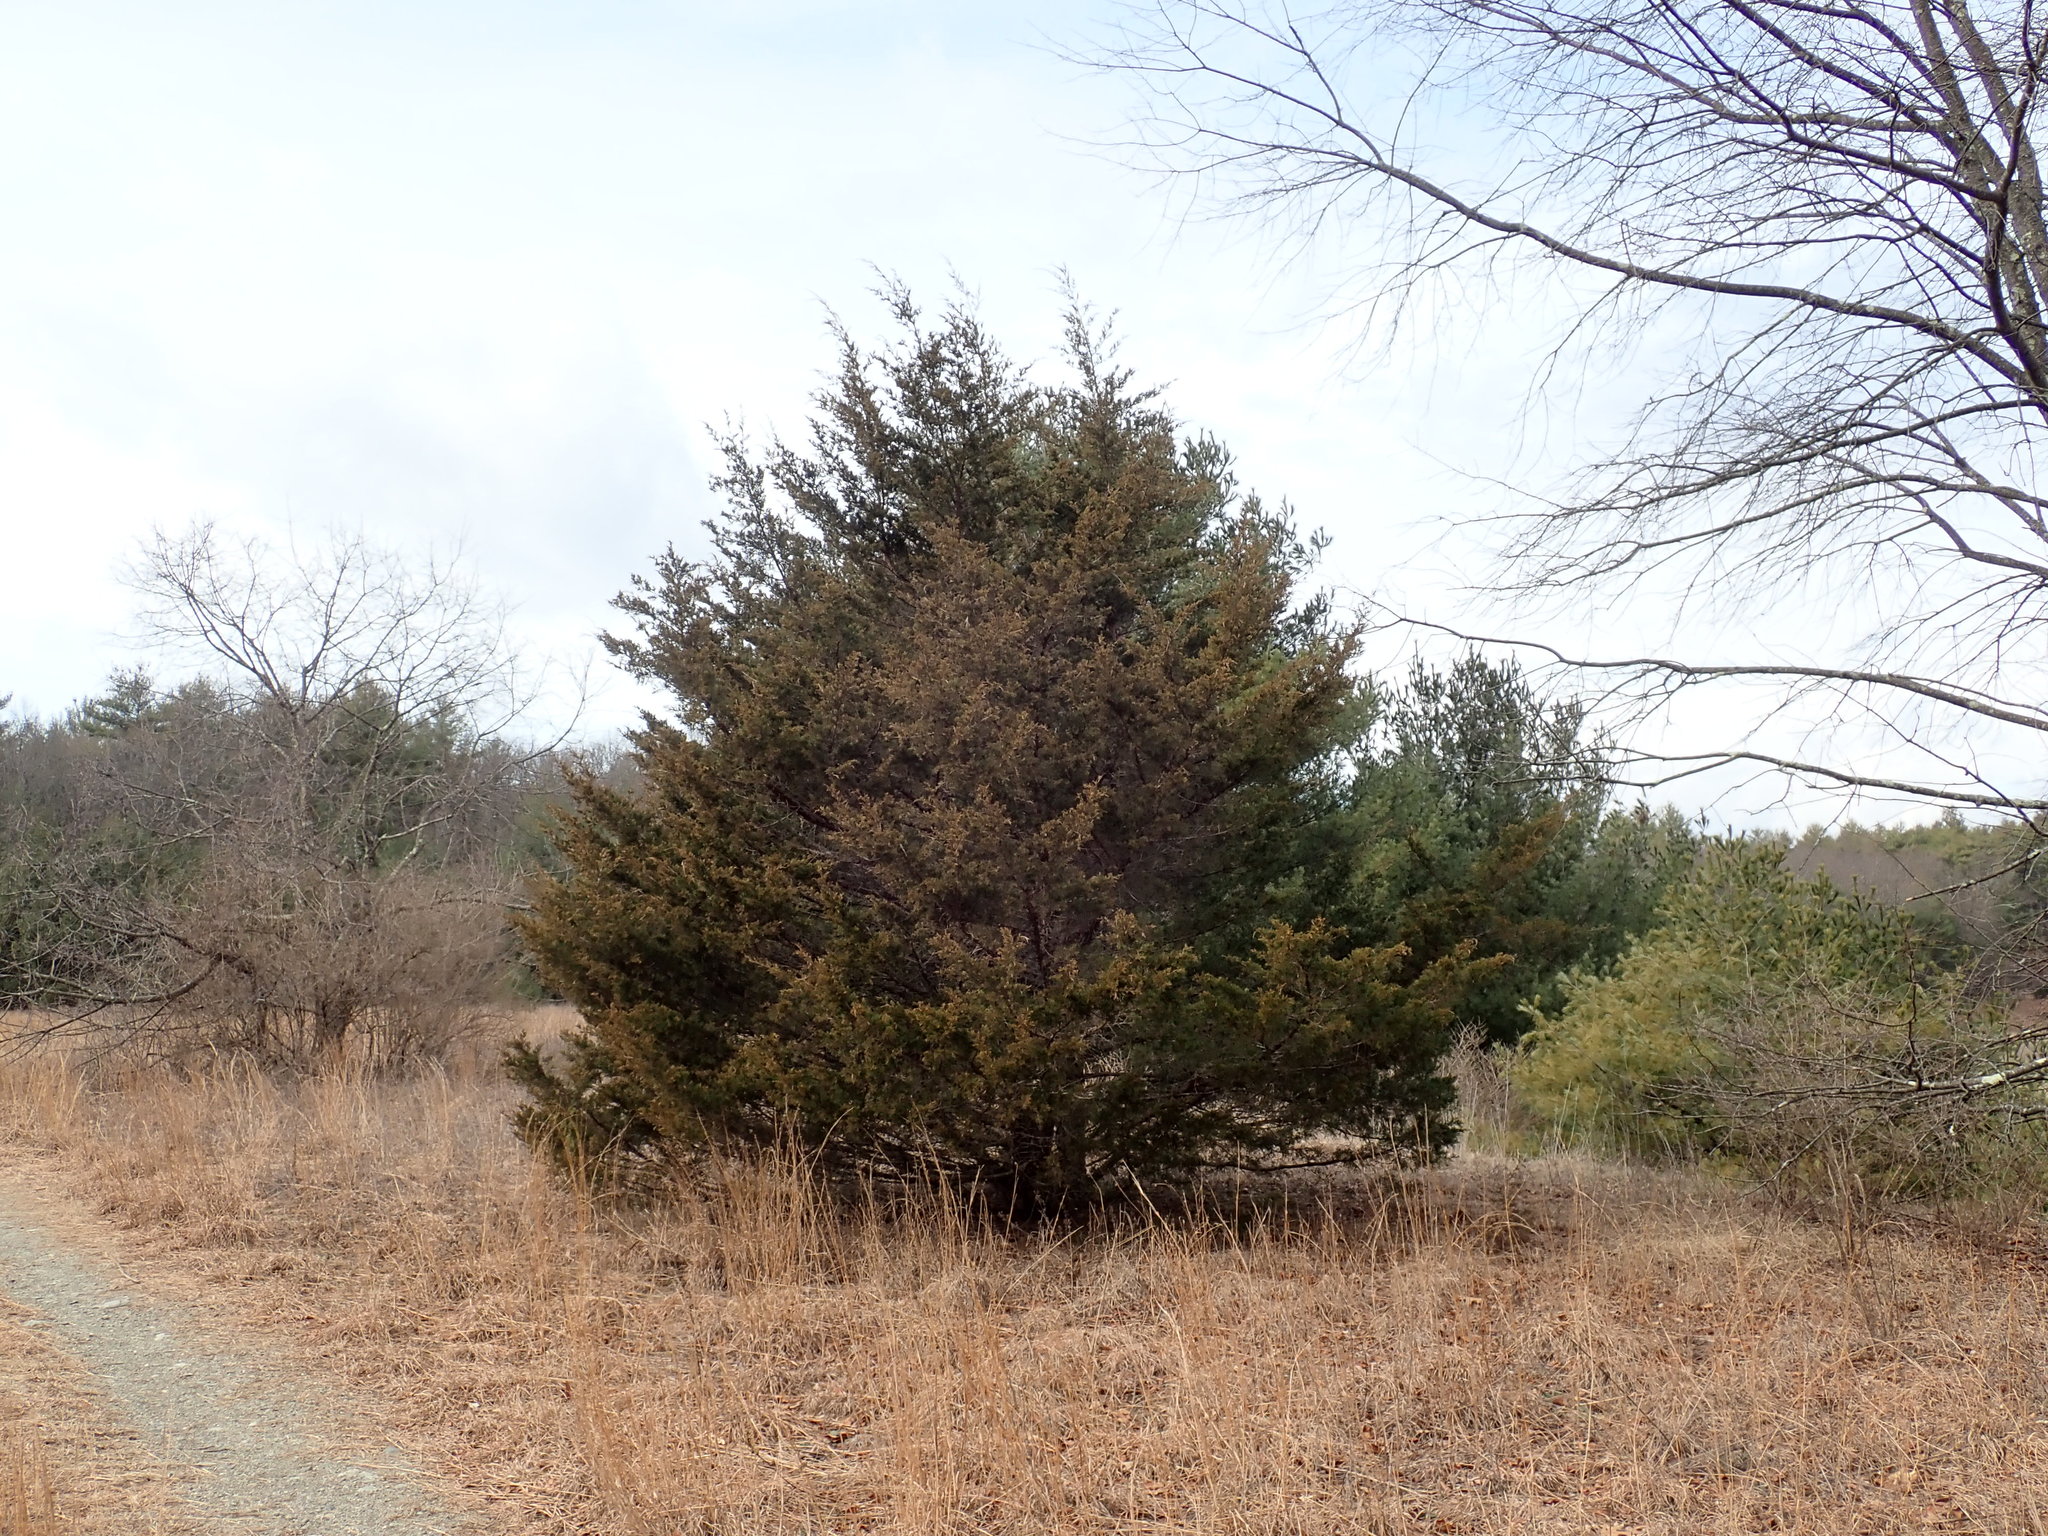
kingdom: Plantae
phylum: Tracheophyta
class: Pinopsida
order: Pinales
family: Cupressaceae
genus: Juniperus
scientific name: Juniperus virginiana
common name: Red juniper
